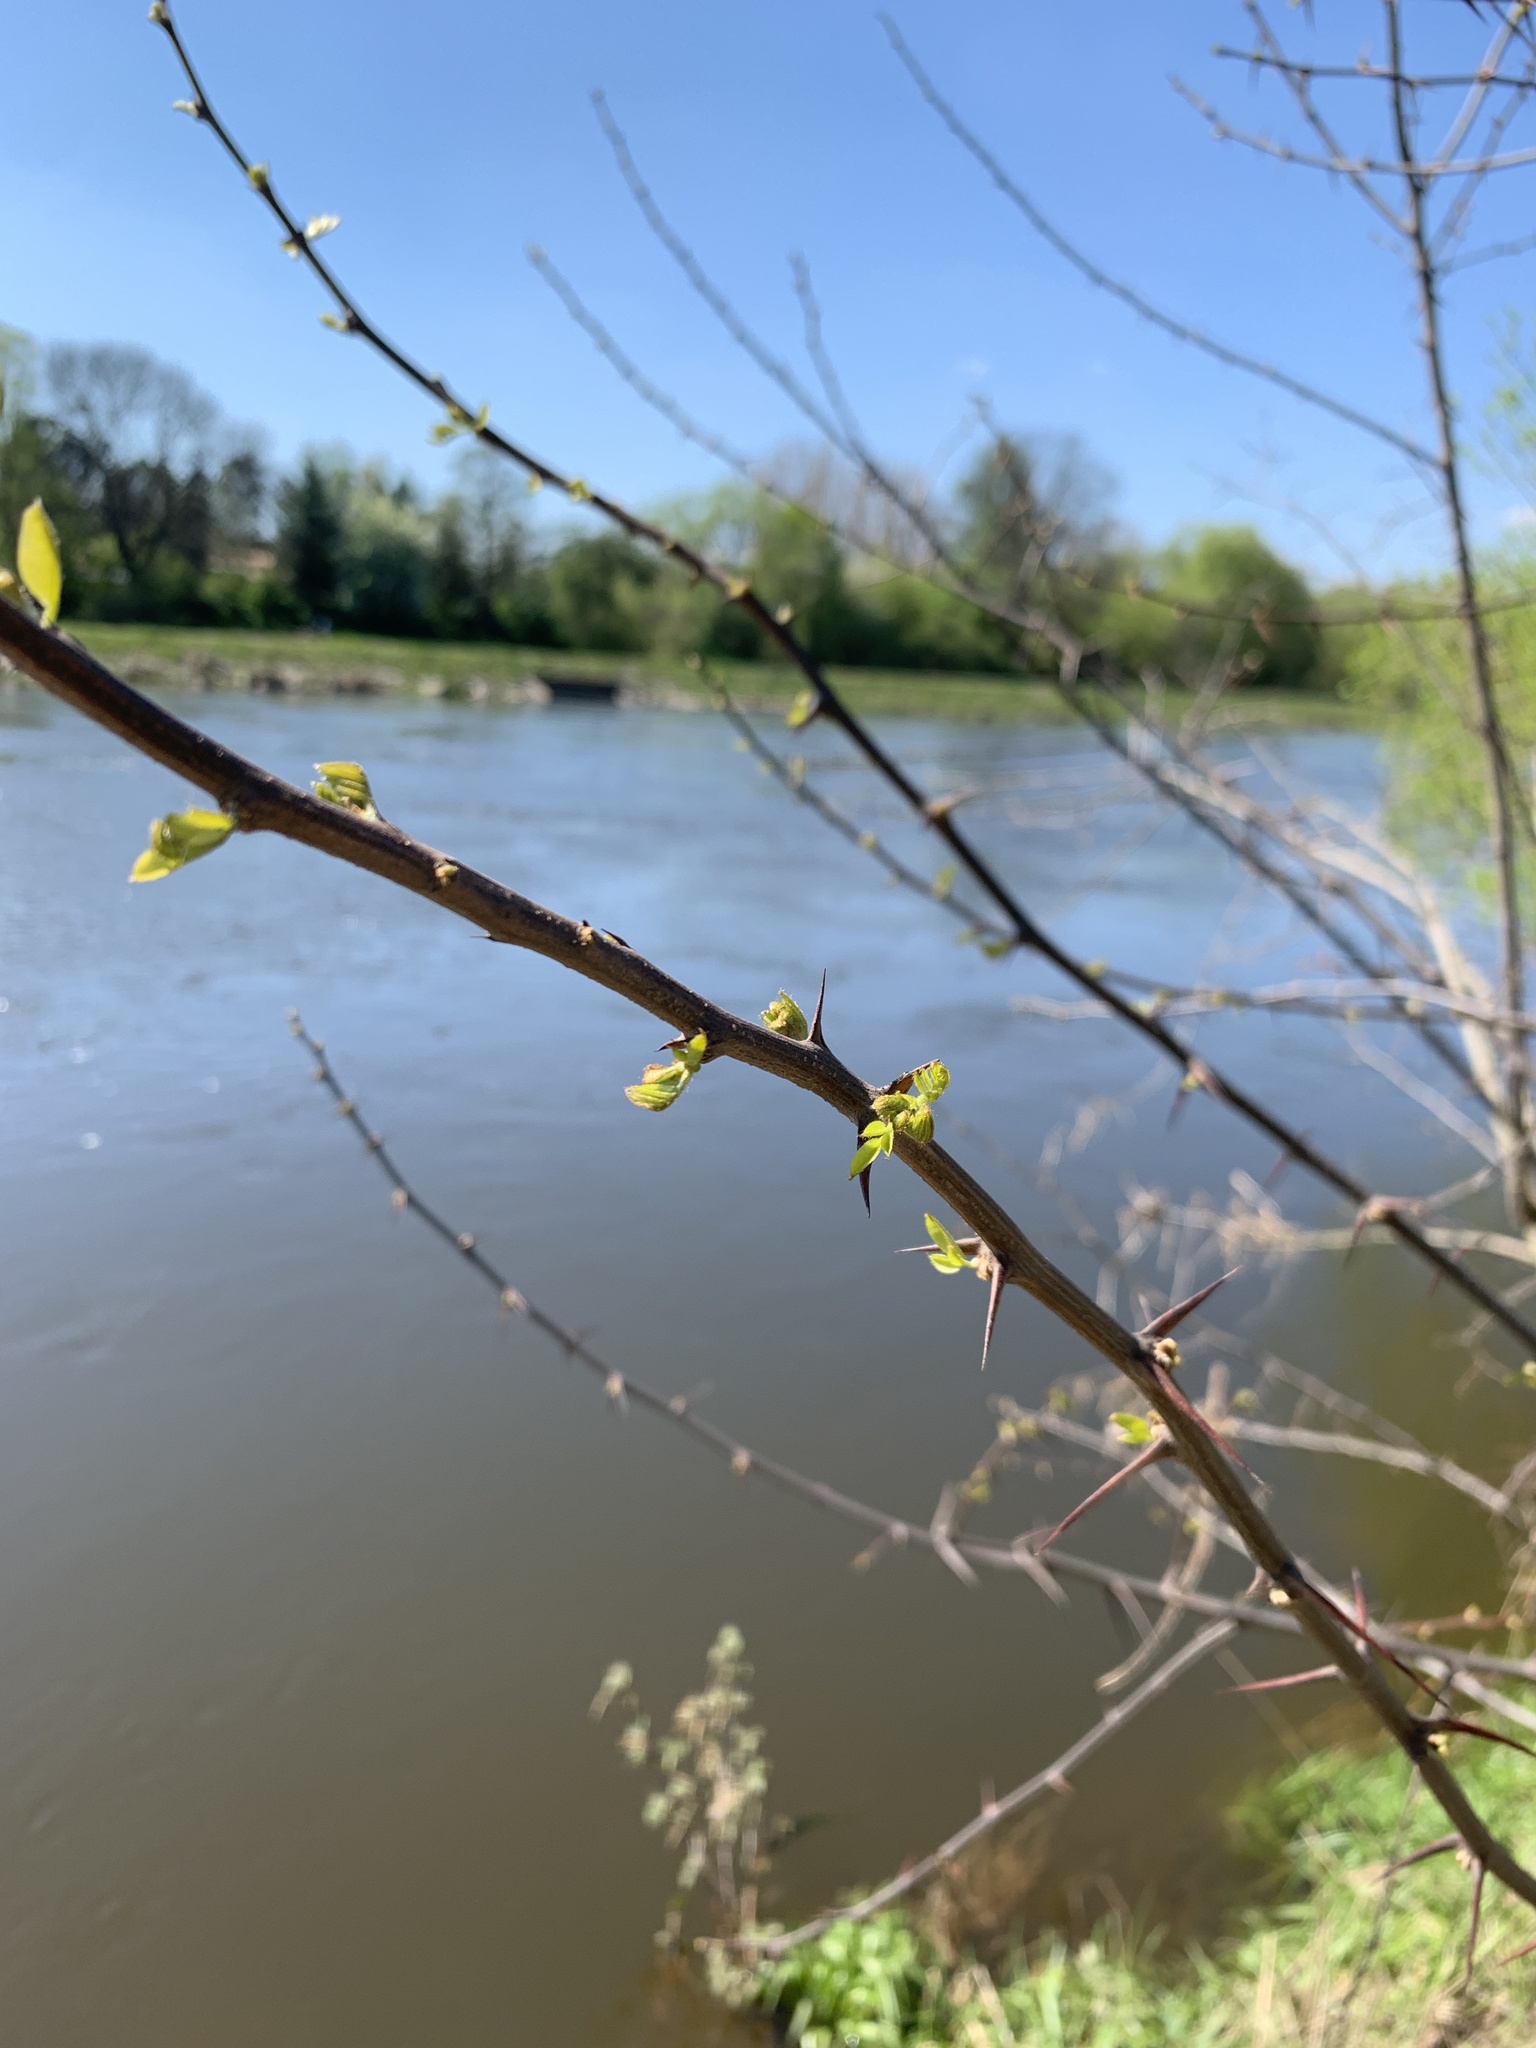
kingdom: Plantae
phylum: Tracheophyta
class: Magnoliopsida
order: Fabales
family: Fabaceae
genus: Robinia
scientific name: Robinia pseudoacacia
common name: Black locust
